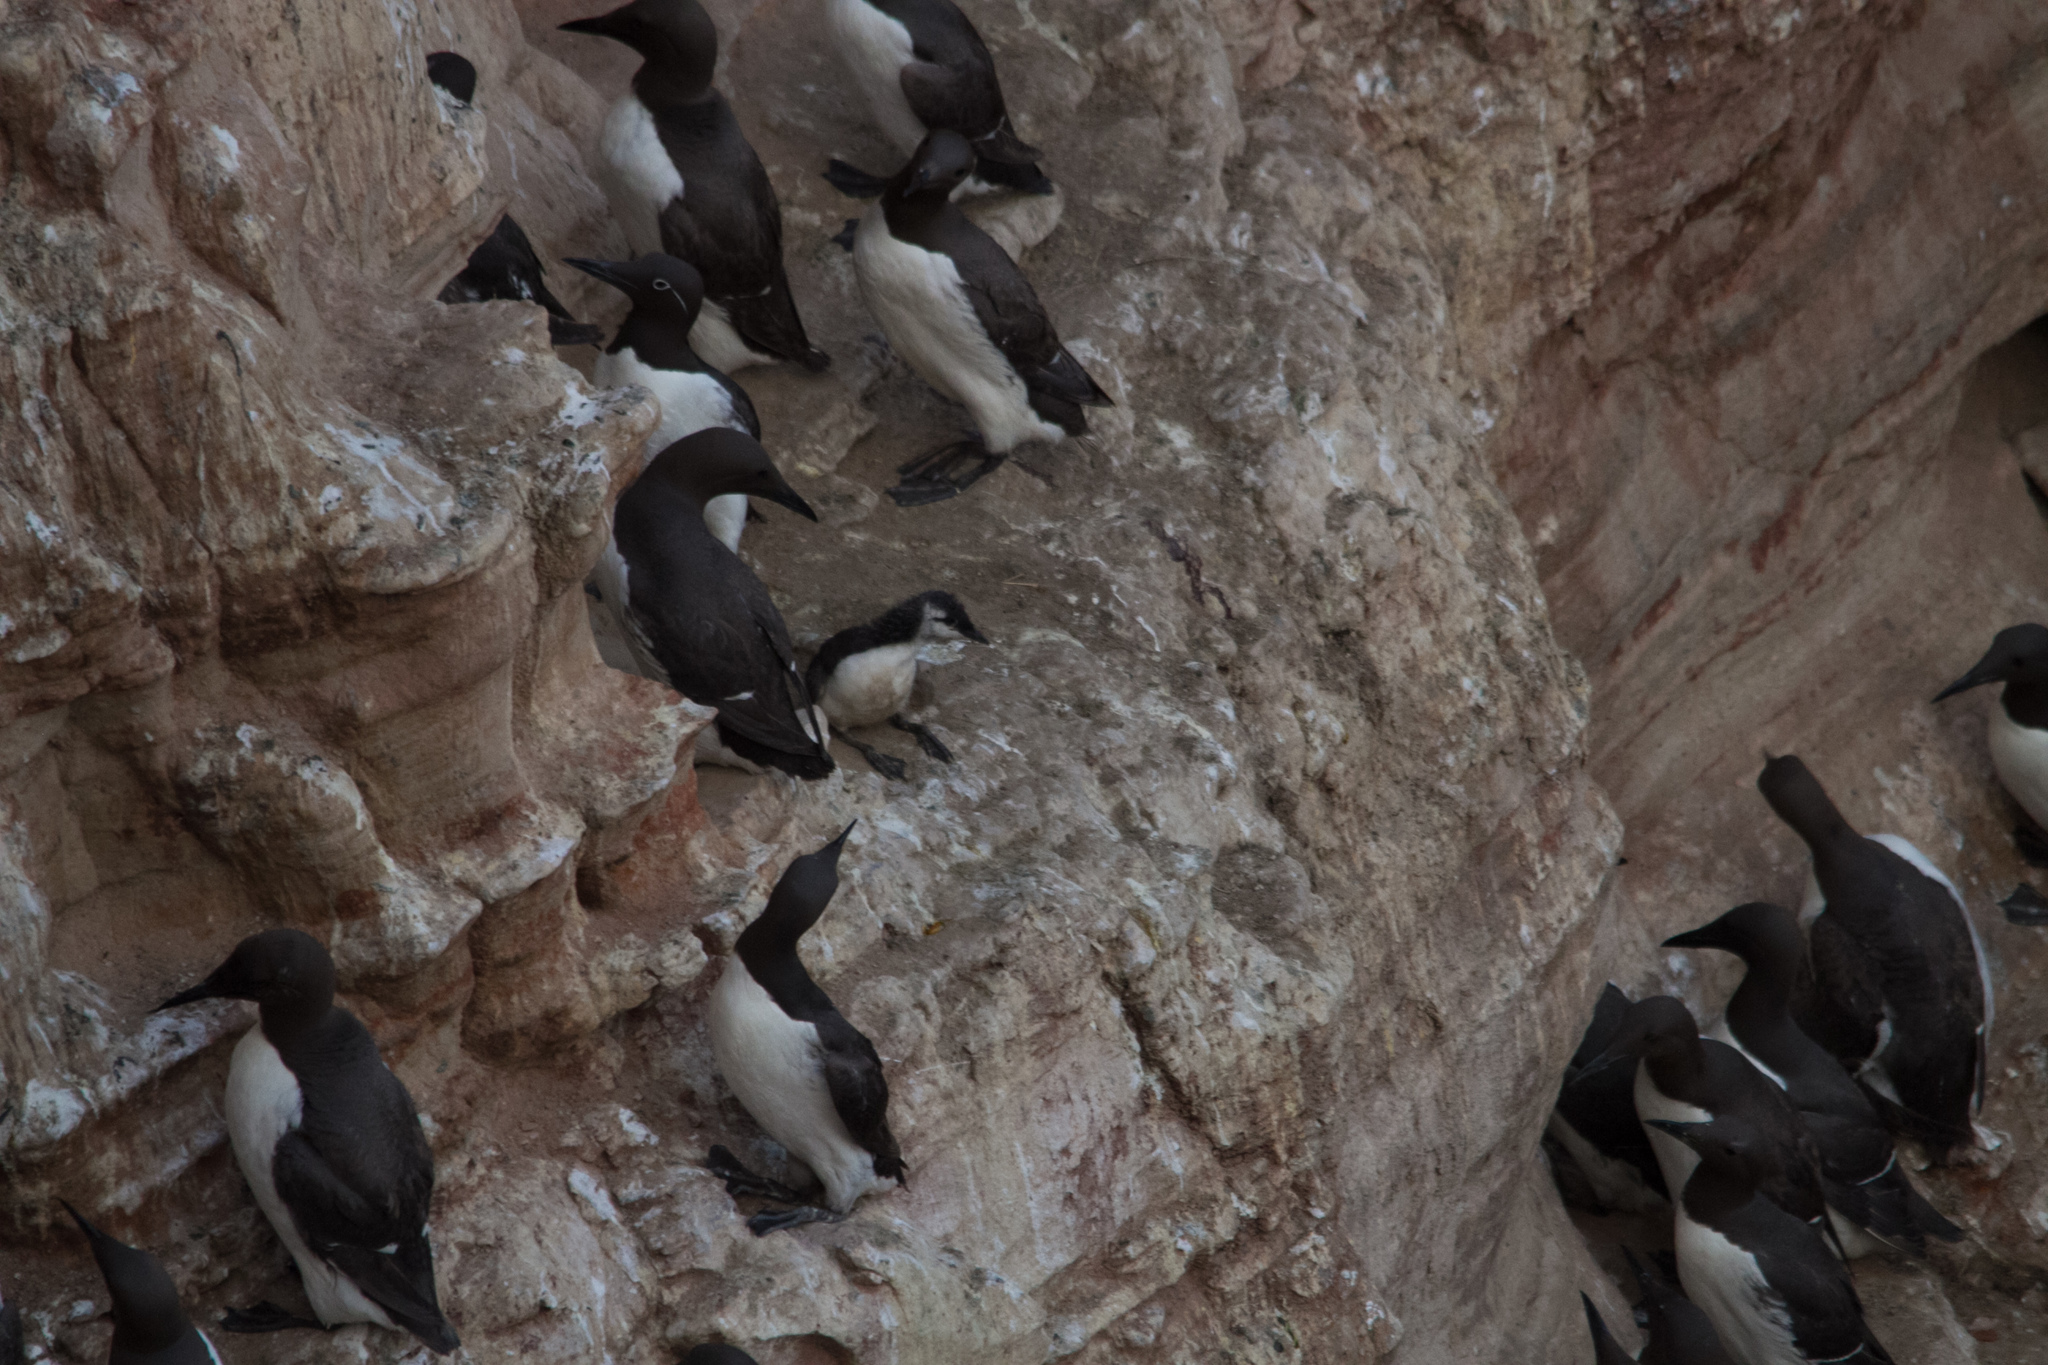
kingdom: Animalia
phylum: Chordata
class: Aves
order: Charadriiformes
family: Alcidae
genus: Uria
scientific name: Uria aalge
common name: Common murre
